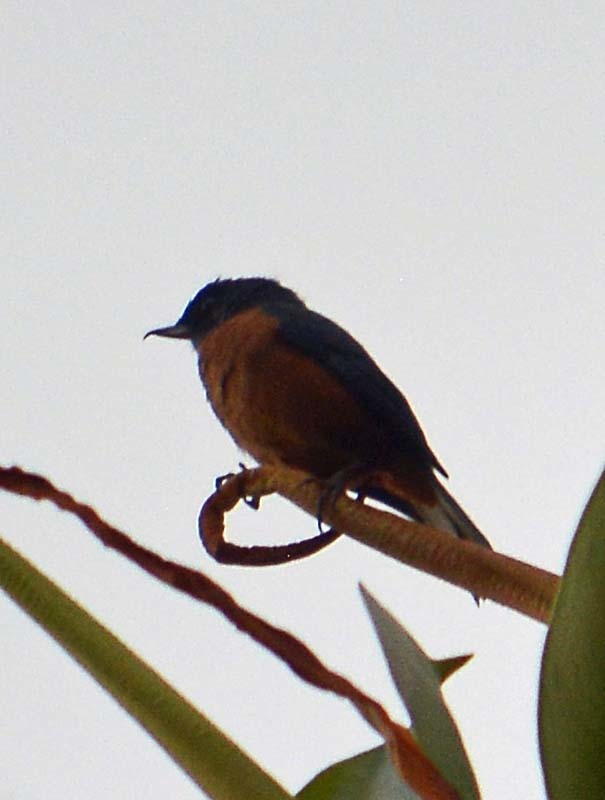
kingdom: Animalia
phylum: Chordata
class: Aves
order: Passeriformes
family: Thraupidae
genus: Diglossa
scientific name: Diglossa baritula
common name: Cinnamon-bellied flowerpiercer
